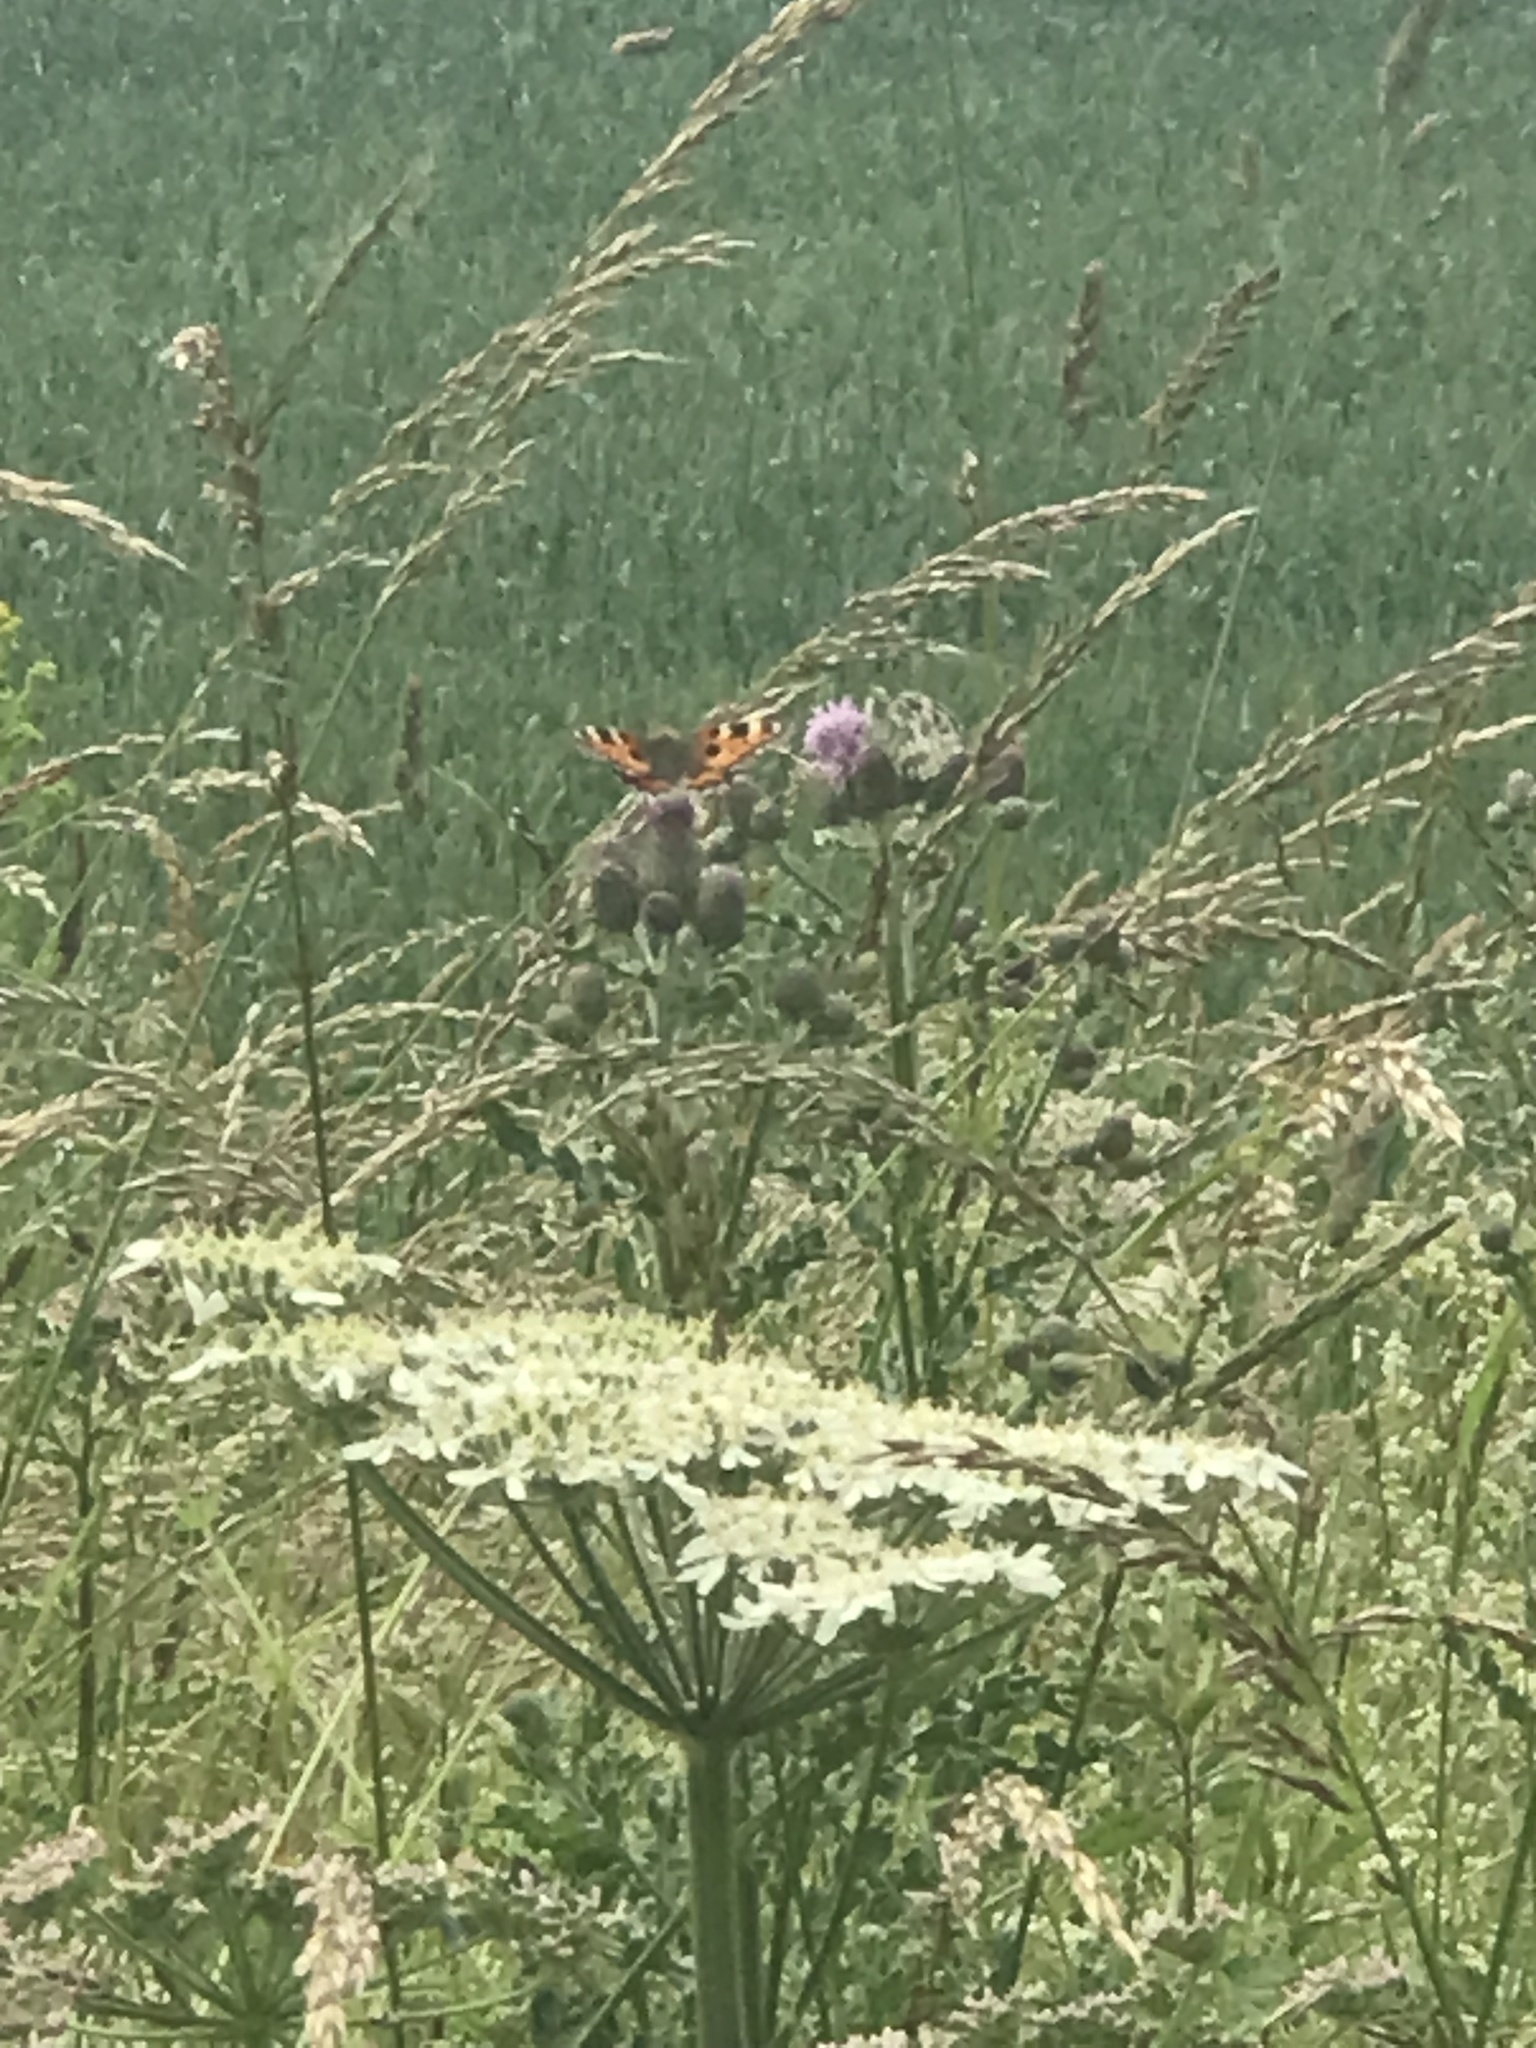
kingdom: Animalia
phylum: Arthropoda
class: Insecta
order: Lepidoptera
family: Nymphalidae
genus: Aglais
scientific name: Aglais urticae
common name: Small tortoiseshell
